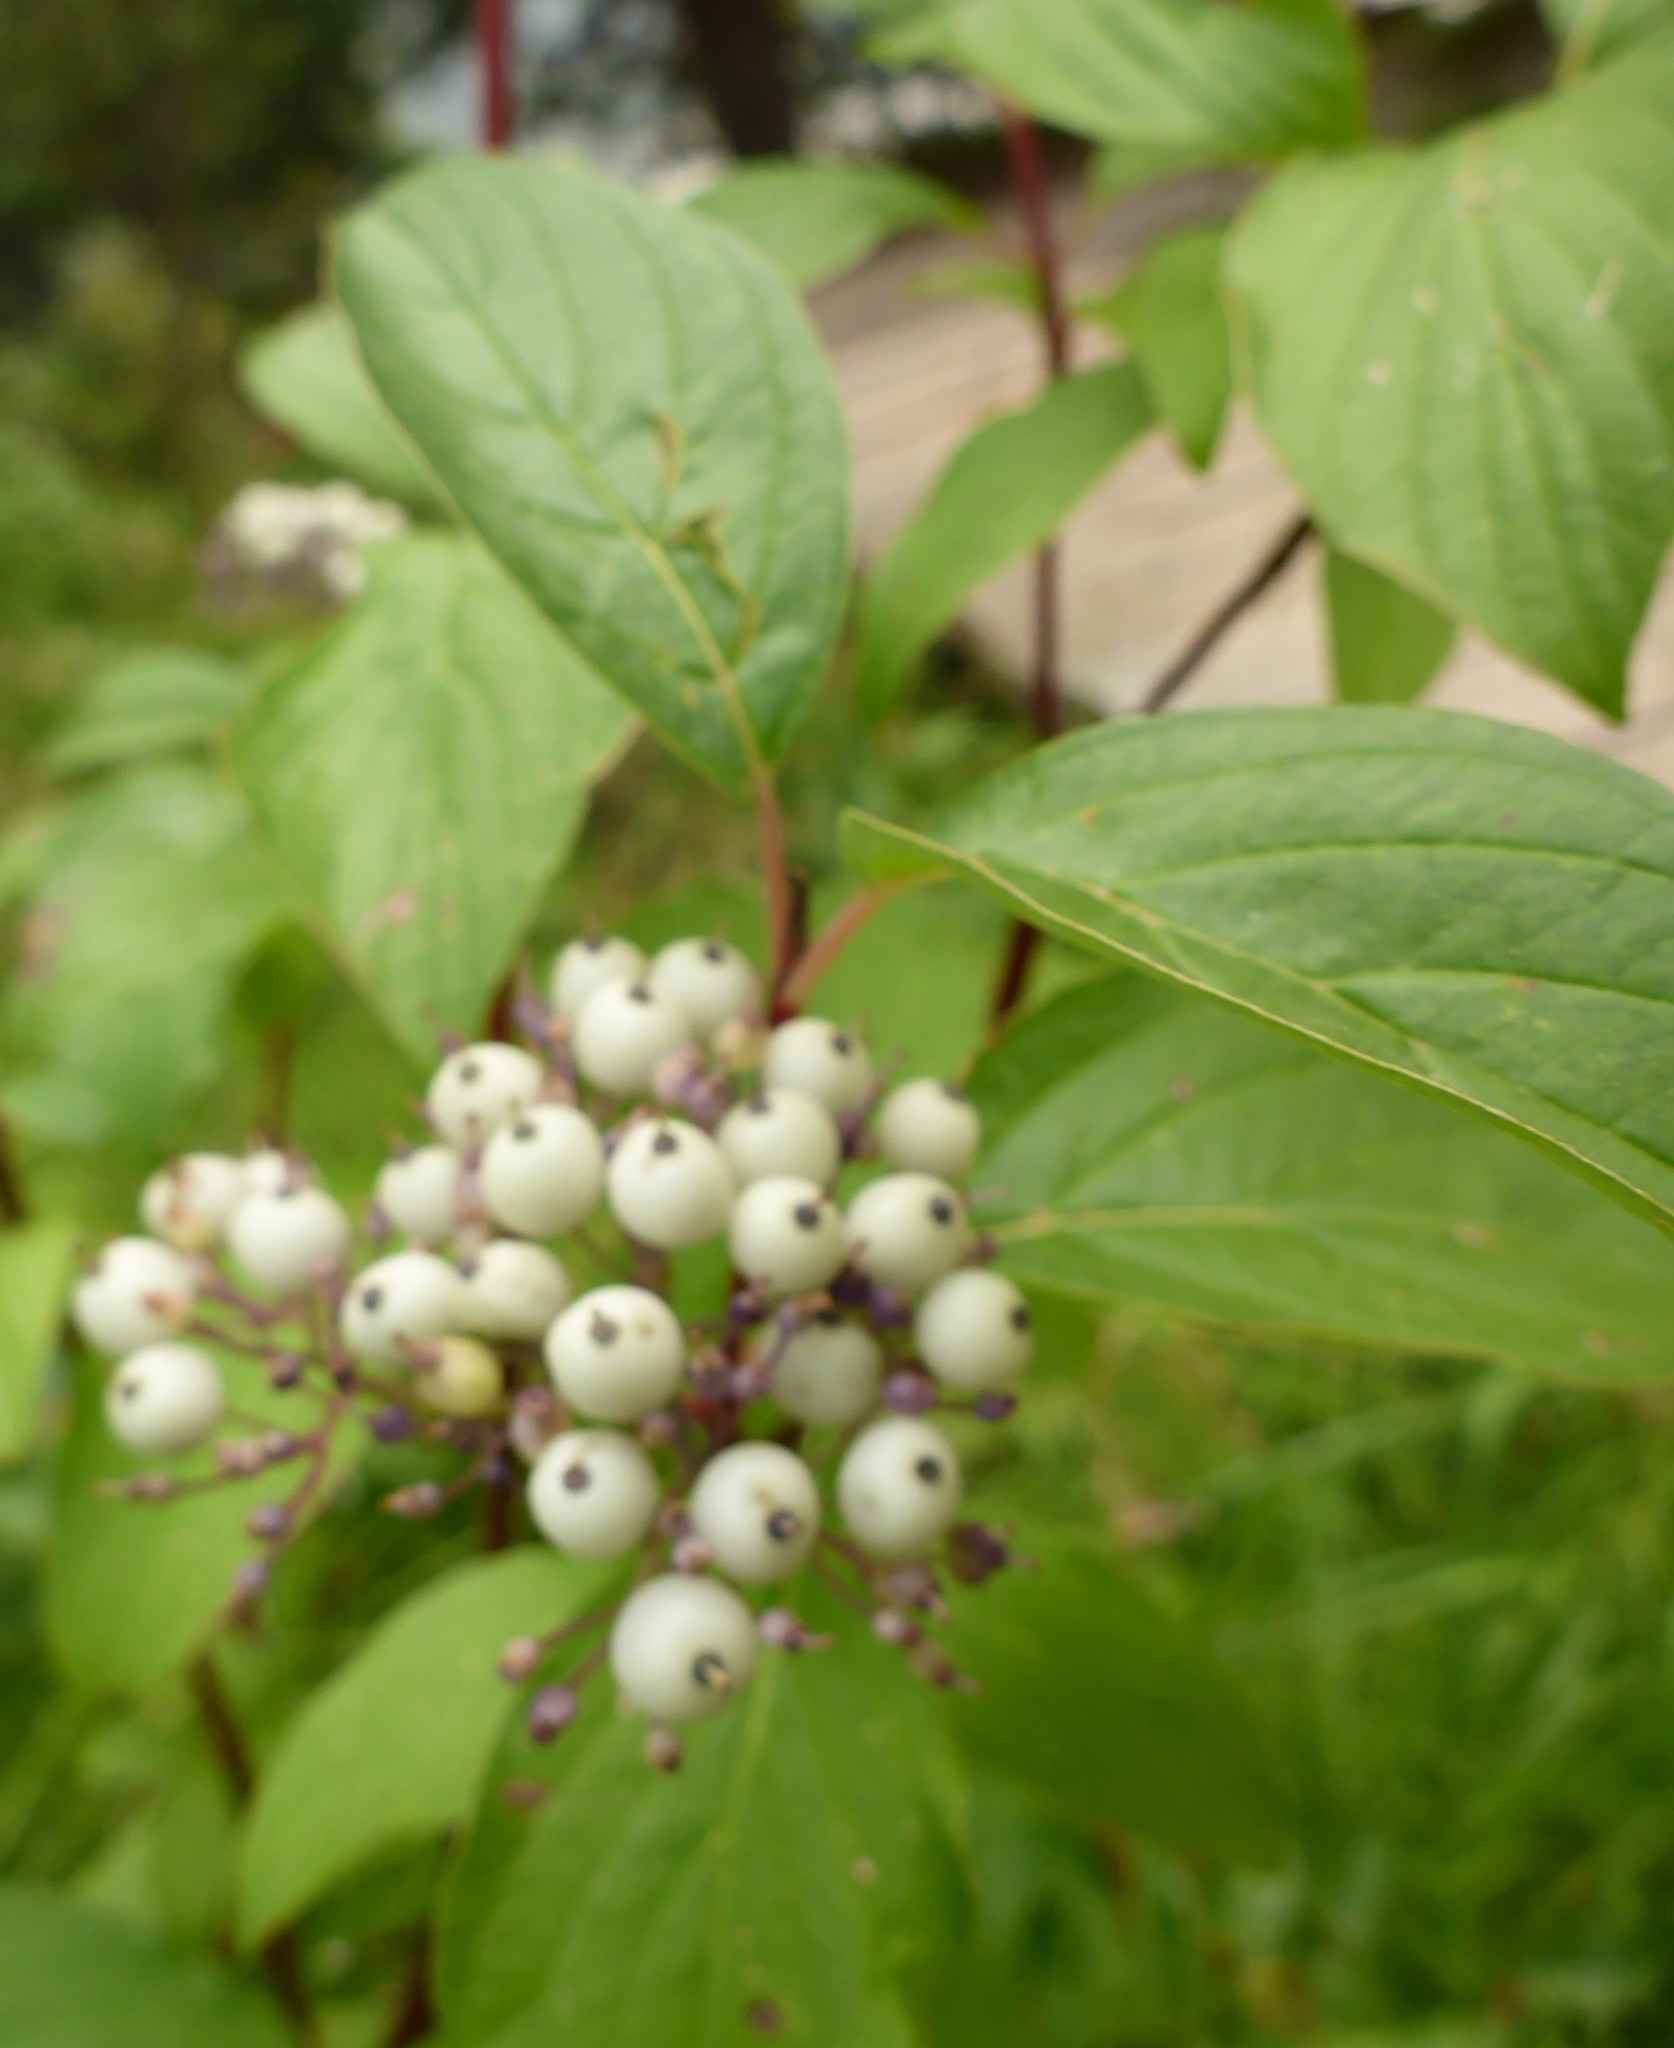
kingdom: Plantae
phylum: Tracheophyta
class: Magnoliopsida
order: Cornales
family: Cornaceae
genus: Cornus
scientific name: Cornus sericea
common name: Red-osier dogwood
